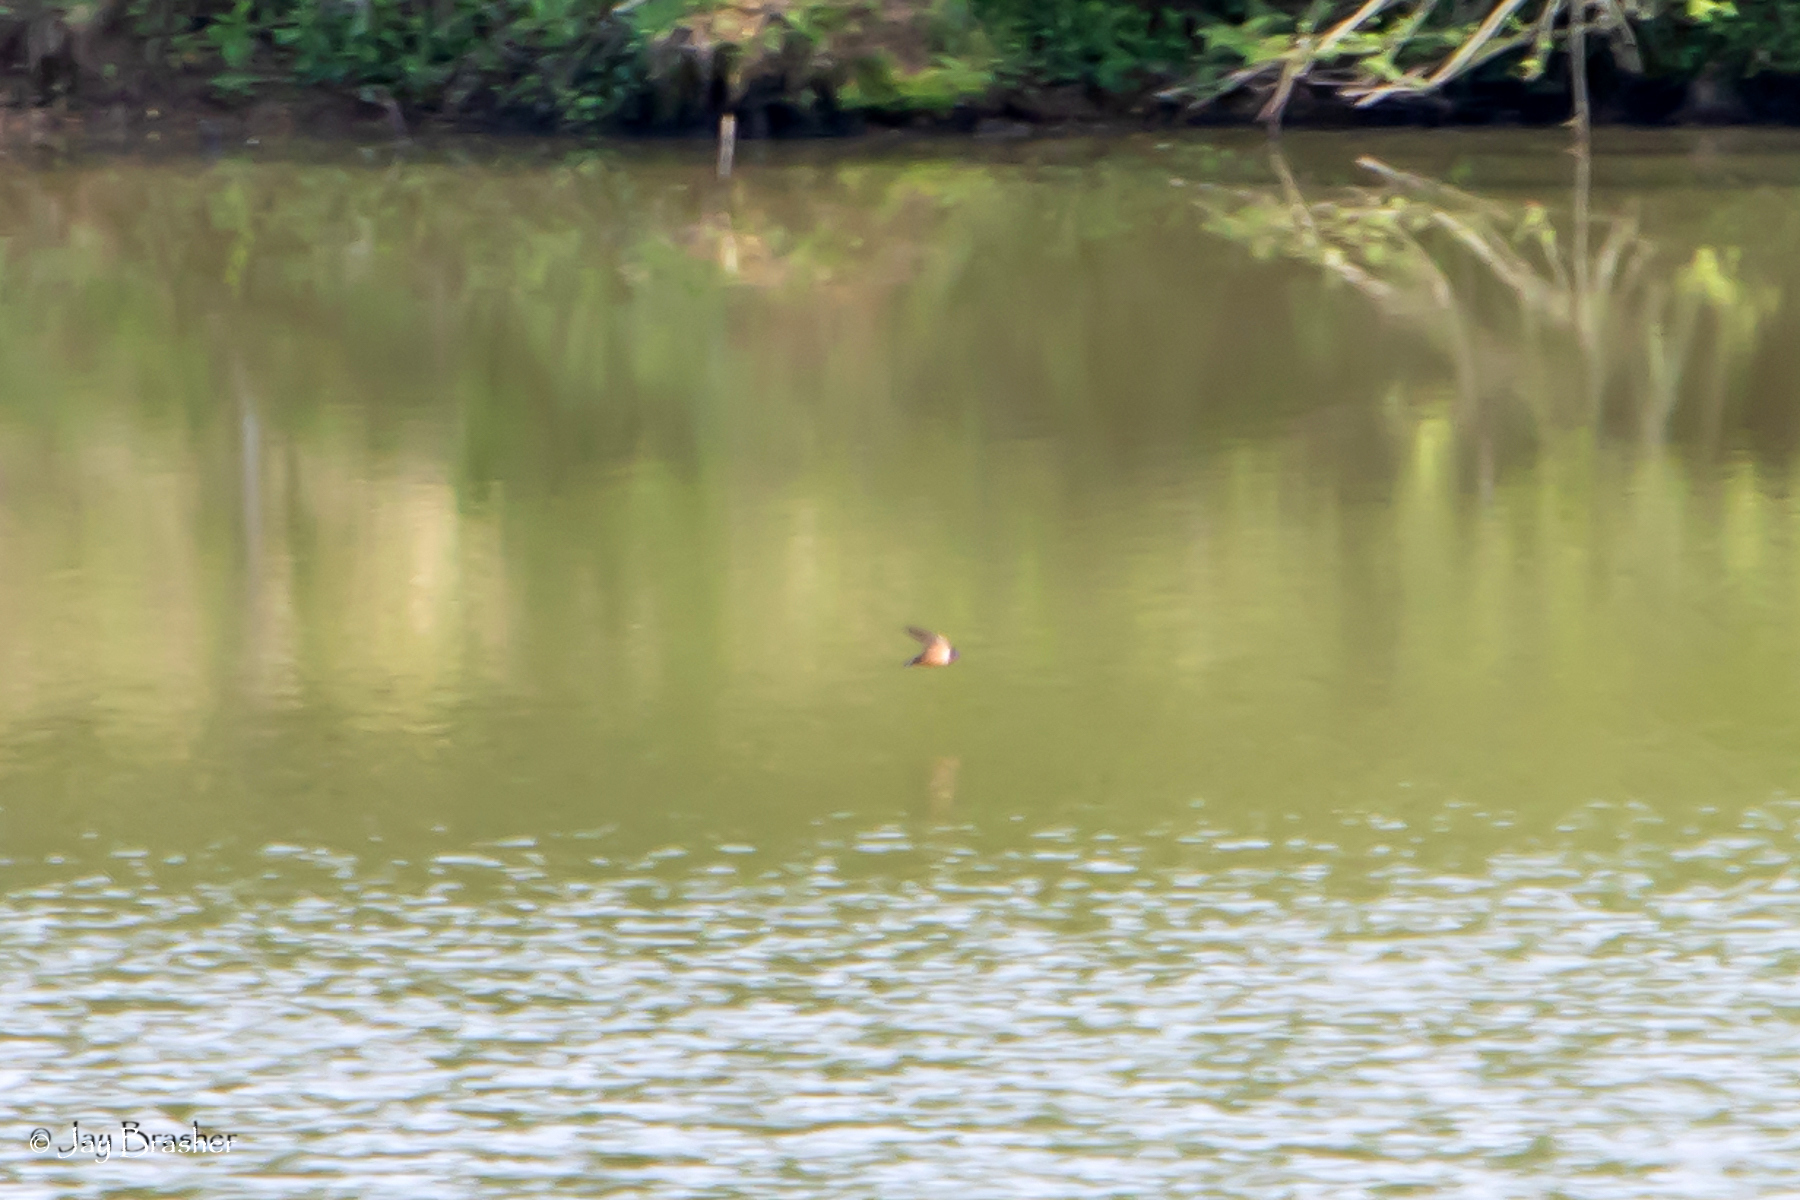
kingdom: Animalia
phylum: Chordata
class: Aves
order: Passeriformes
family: Hirundinidae
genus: Hirundo
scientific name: Hirundo rustica
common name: Barn swallow
